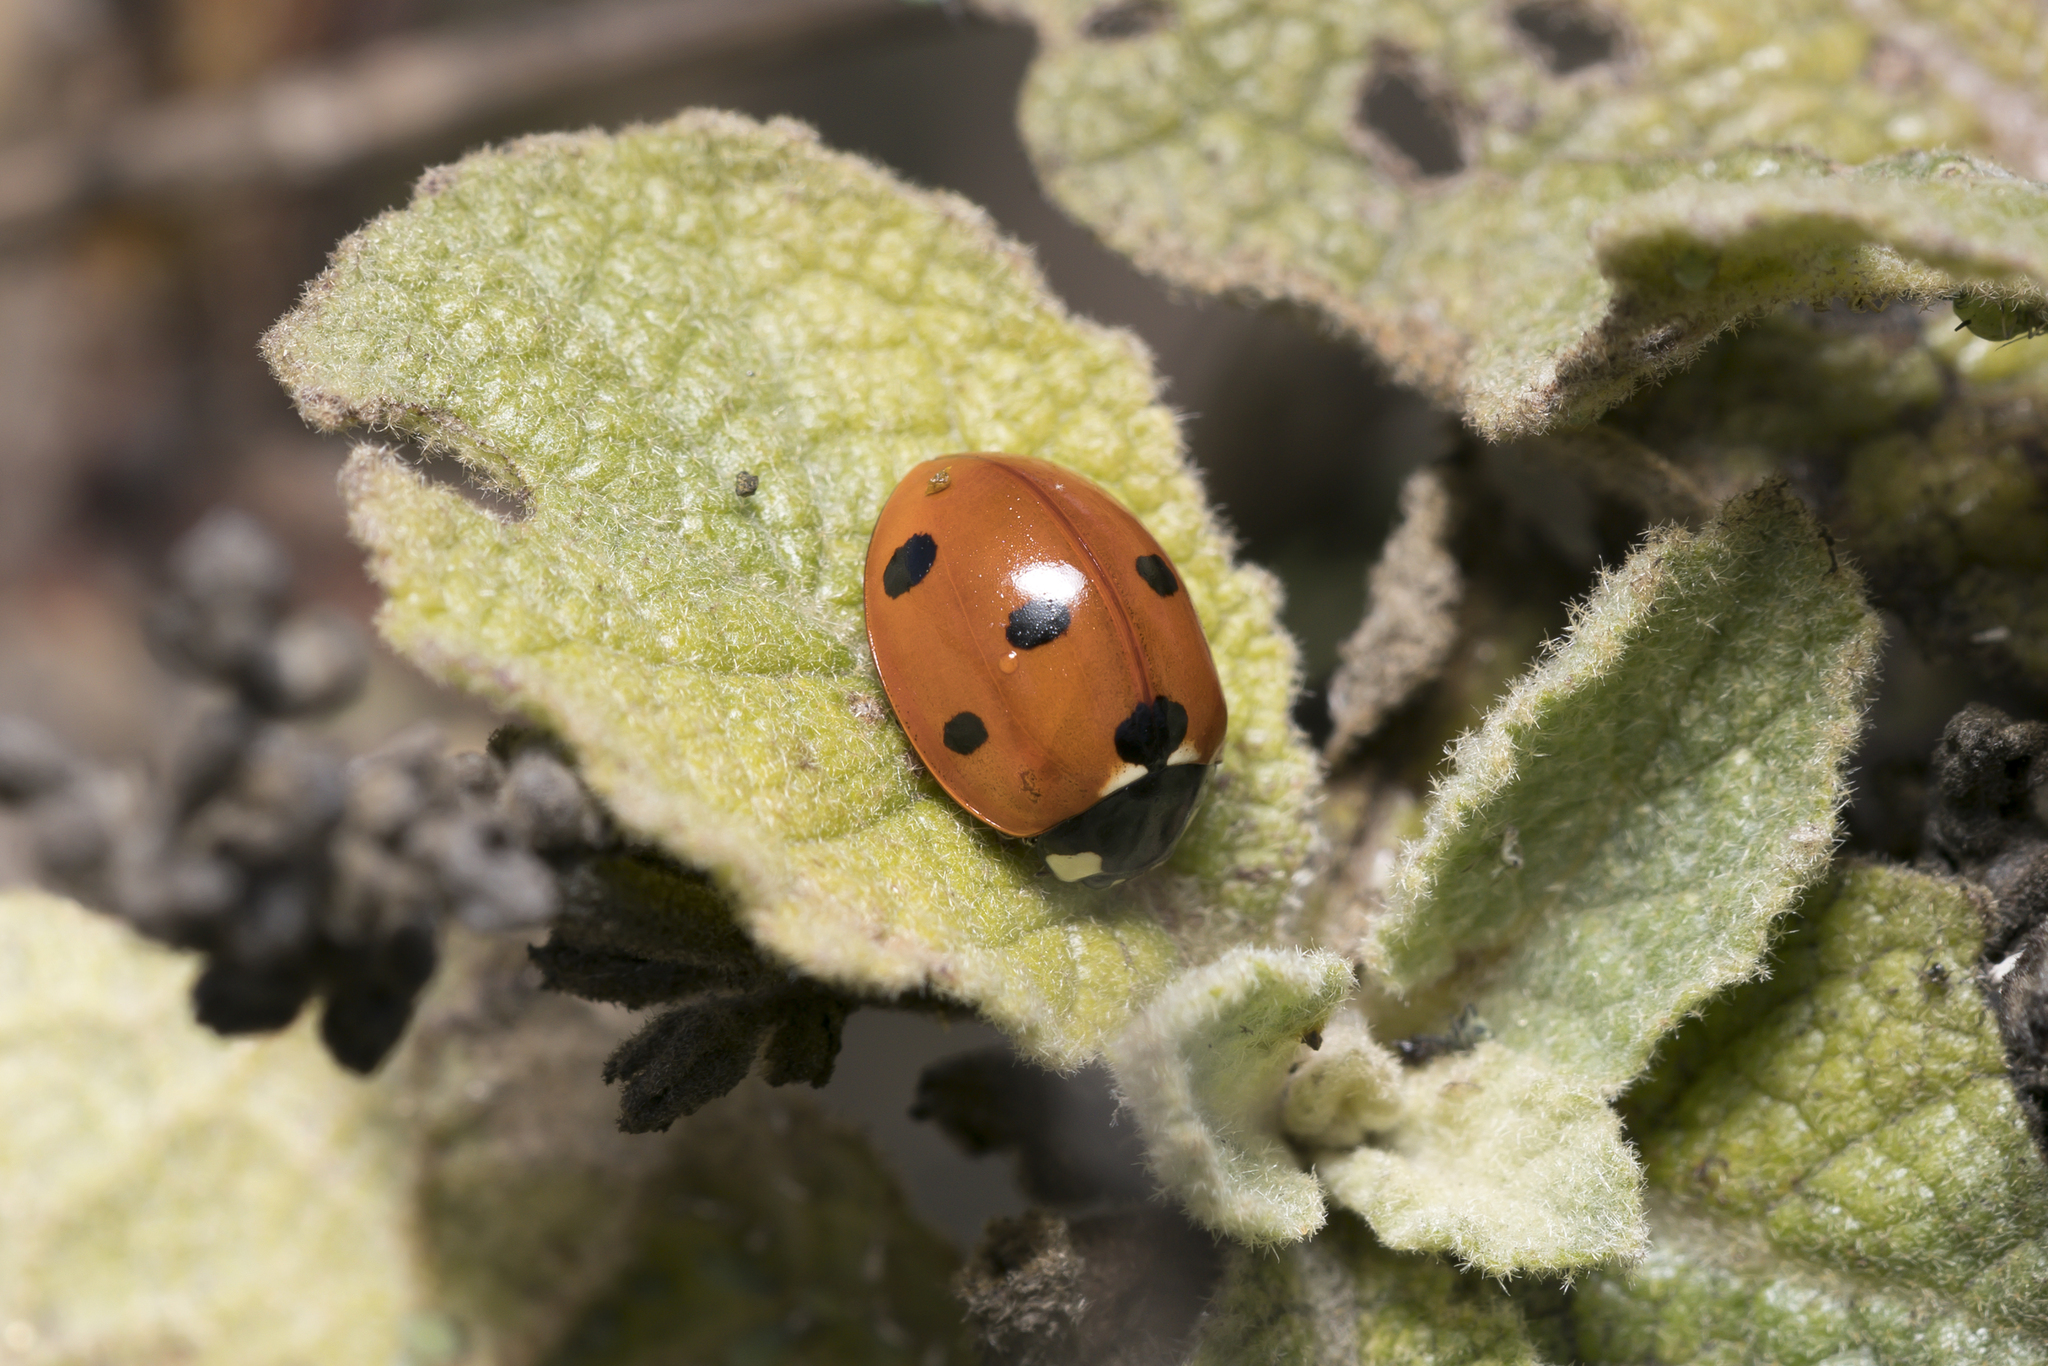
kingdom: Animalia
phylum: Arthropoda
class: Insecta
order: Coleoptera
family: Coccinellidae
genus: Coccinella
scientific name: Coccinella septempunctata
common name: Sevenspotted lady beetle
